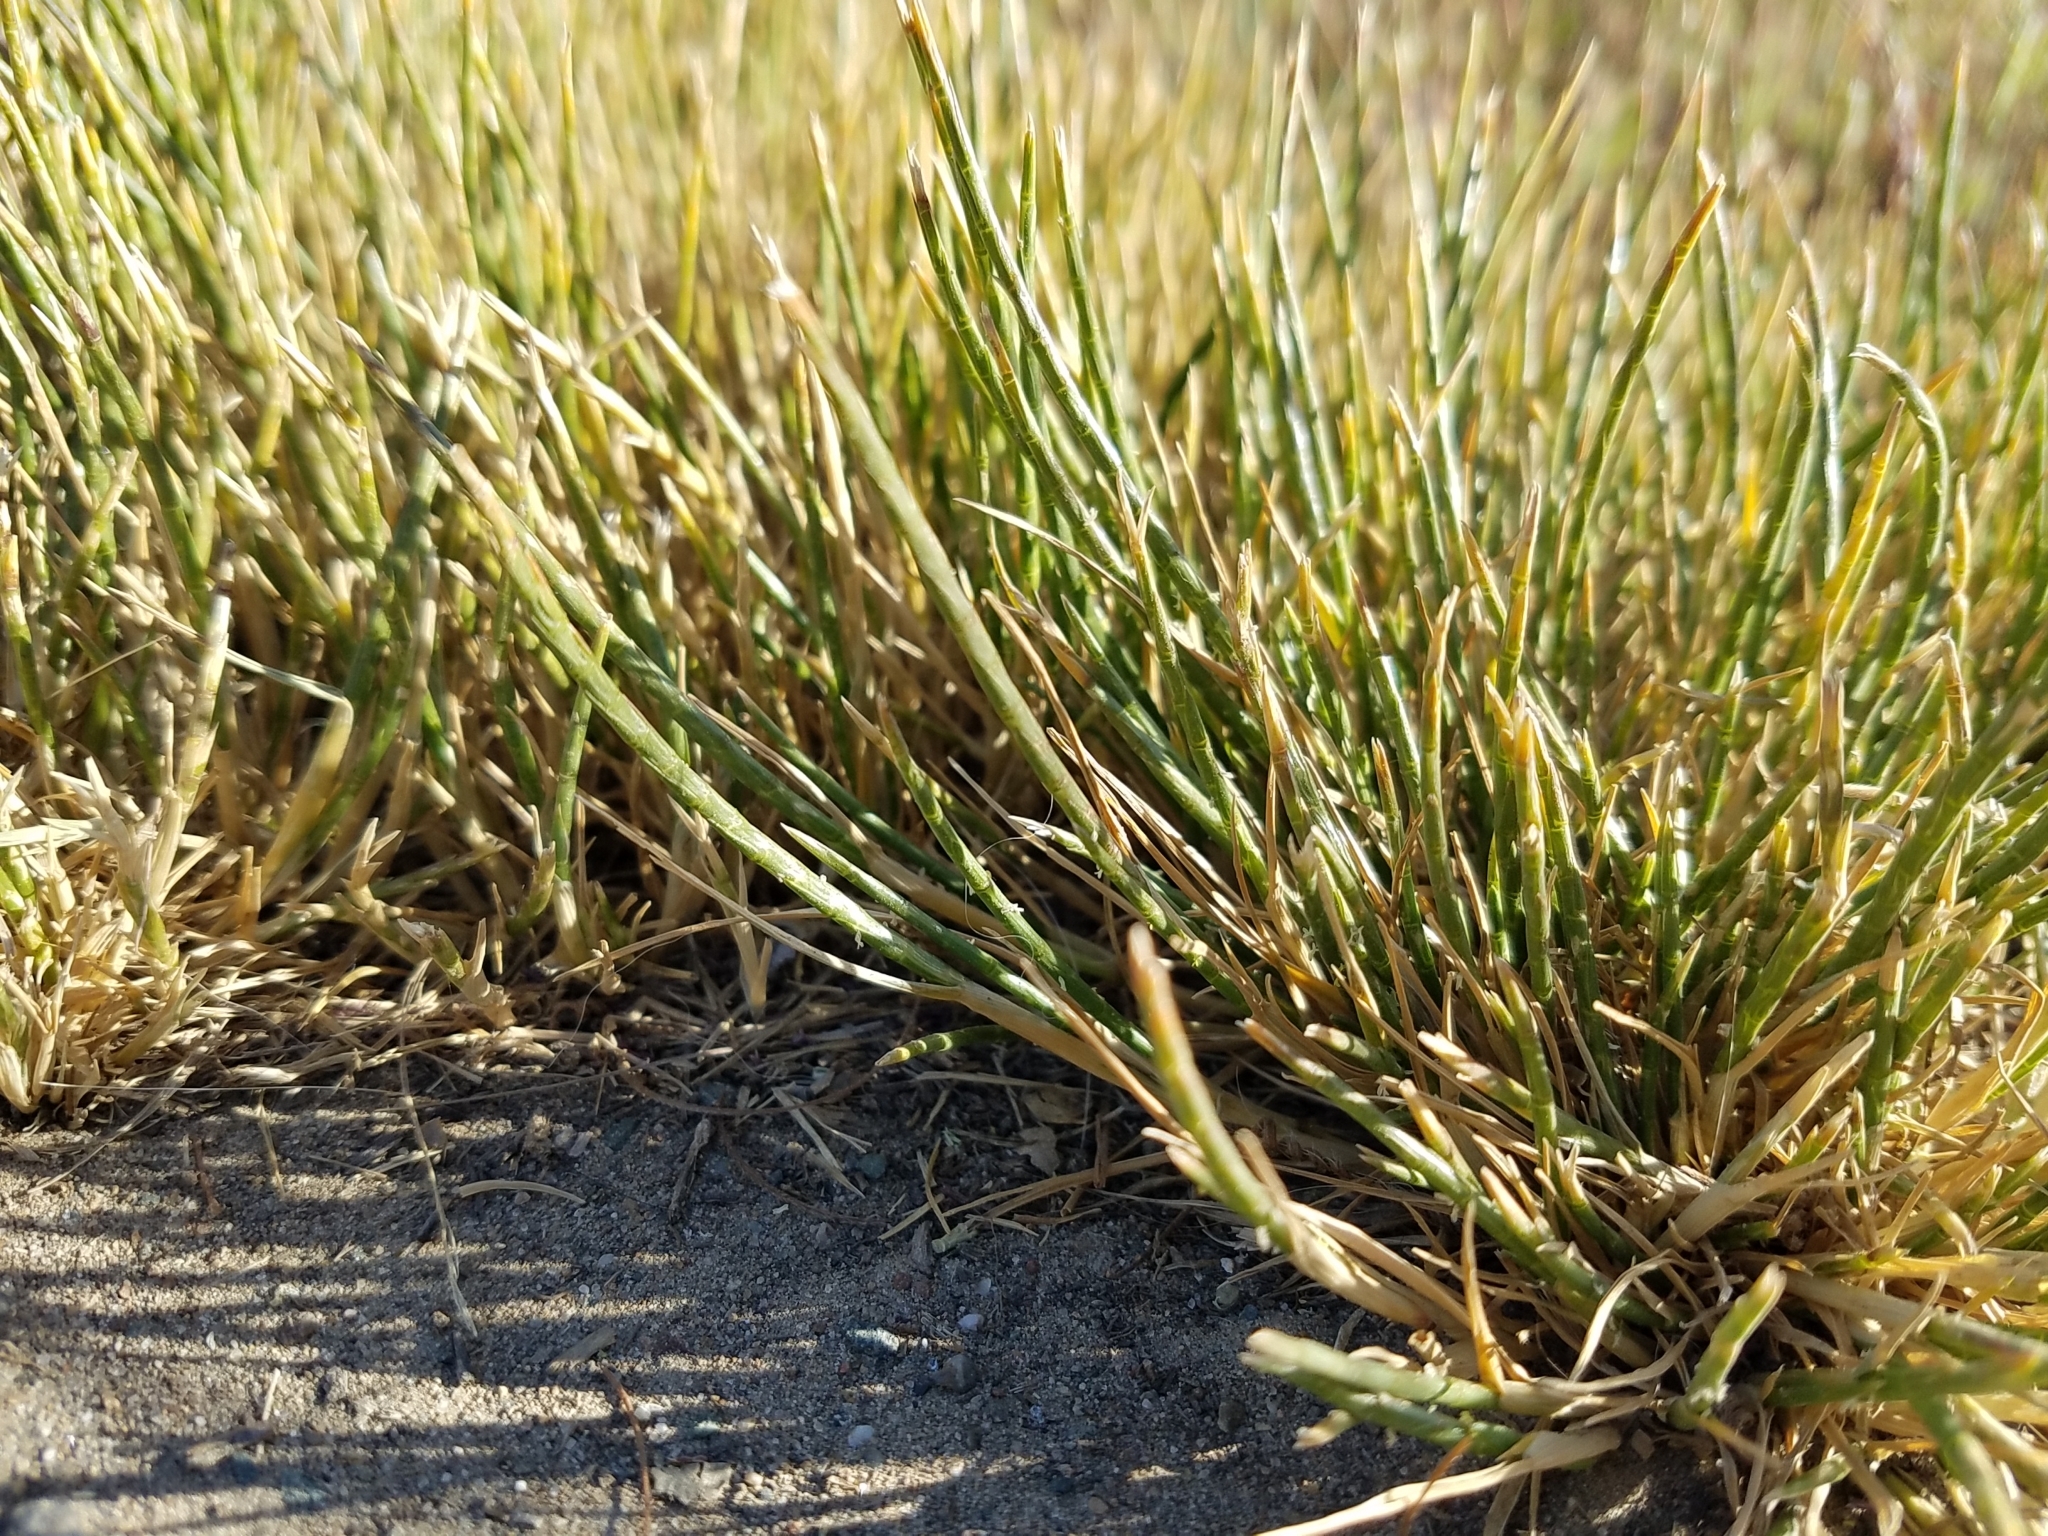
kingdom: Plantae
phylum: Tracheophyta
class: Liliopsida
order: Poales
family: Poaceae
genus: Parapholis
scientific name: Parapholis cylindrica
